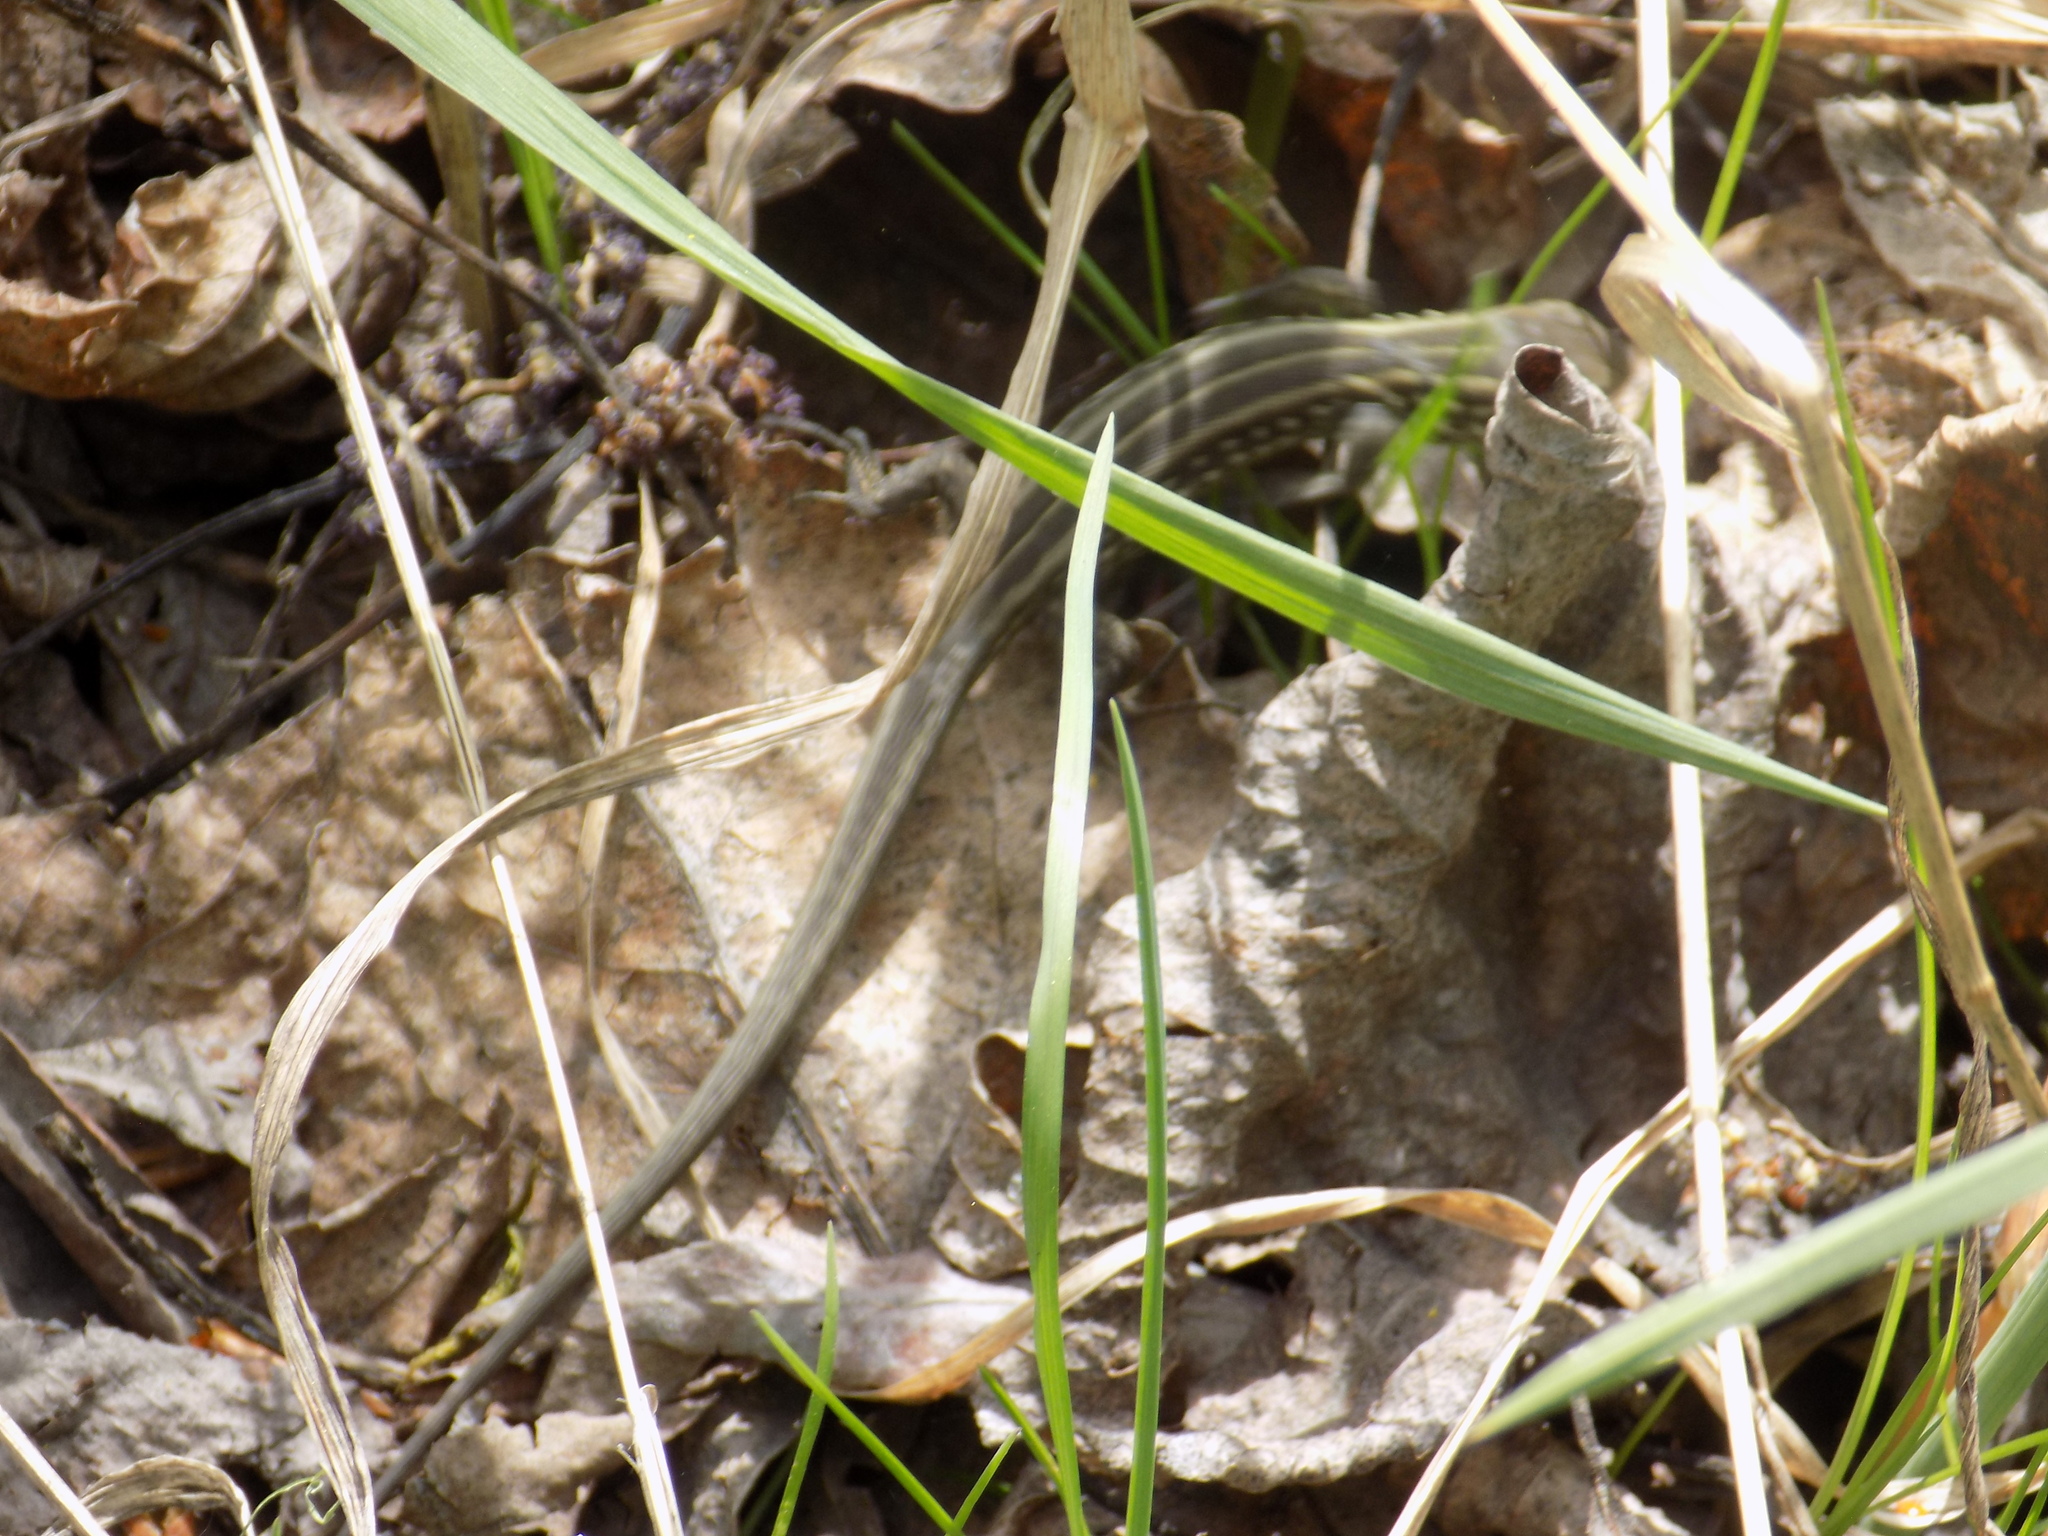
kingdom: Animalia
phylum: Chordata
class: Squamata
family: Lacertidae
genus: Lacerta
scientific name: Lacerta agilis
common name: Sand lizard
